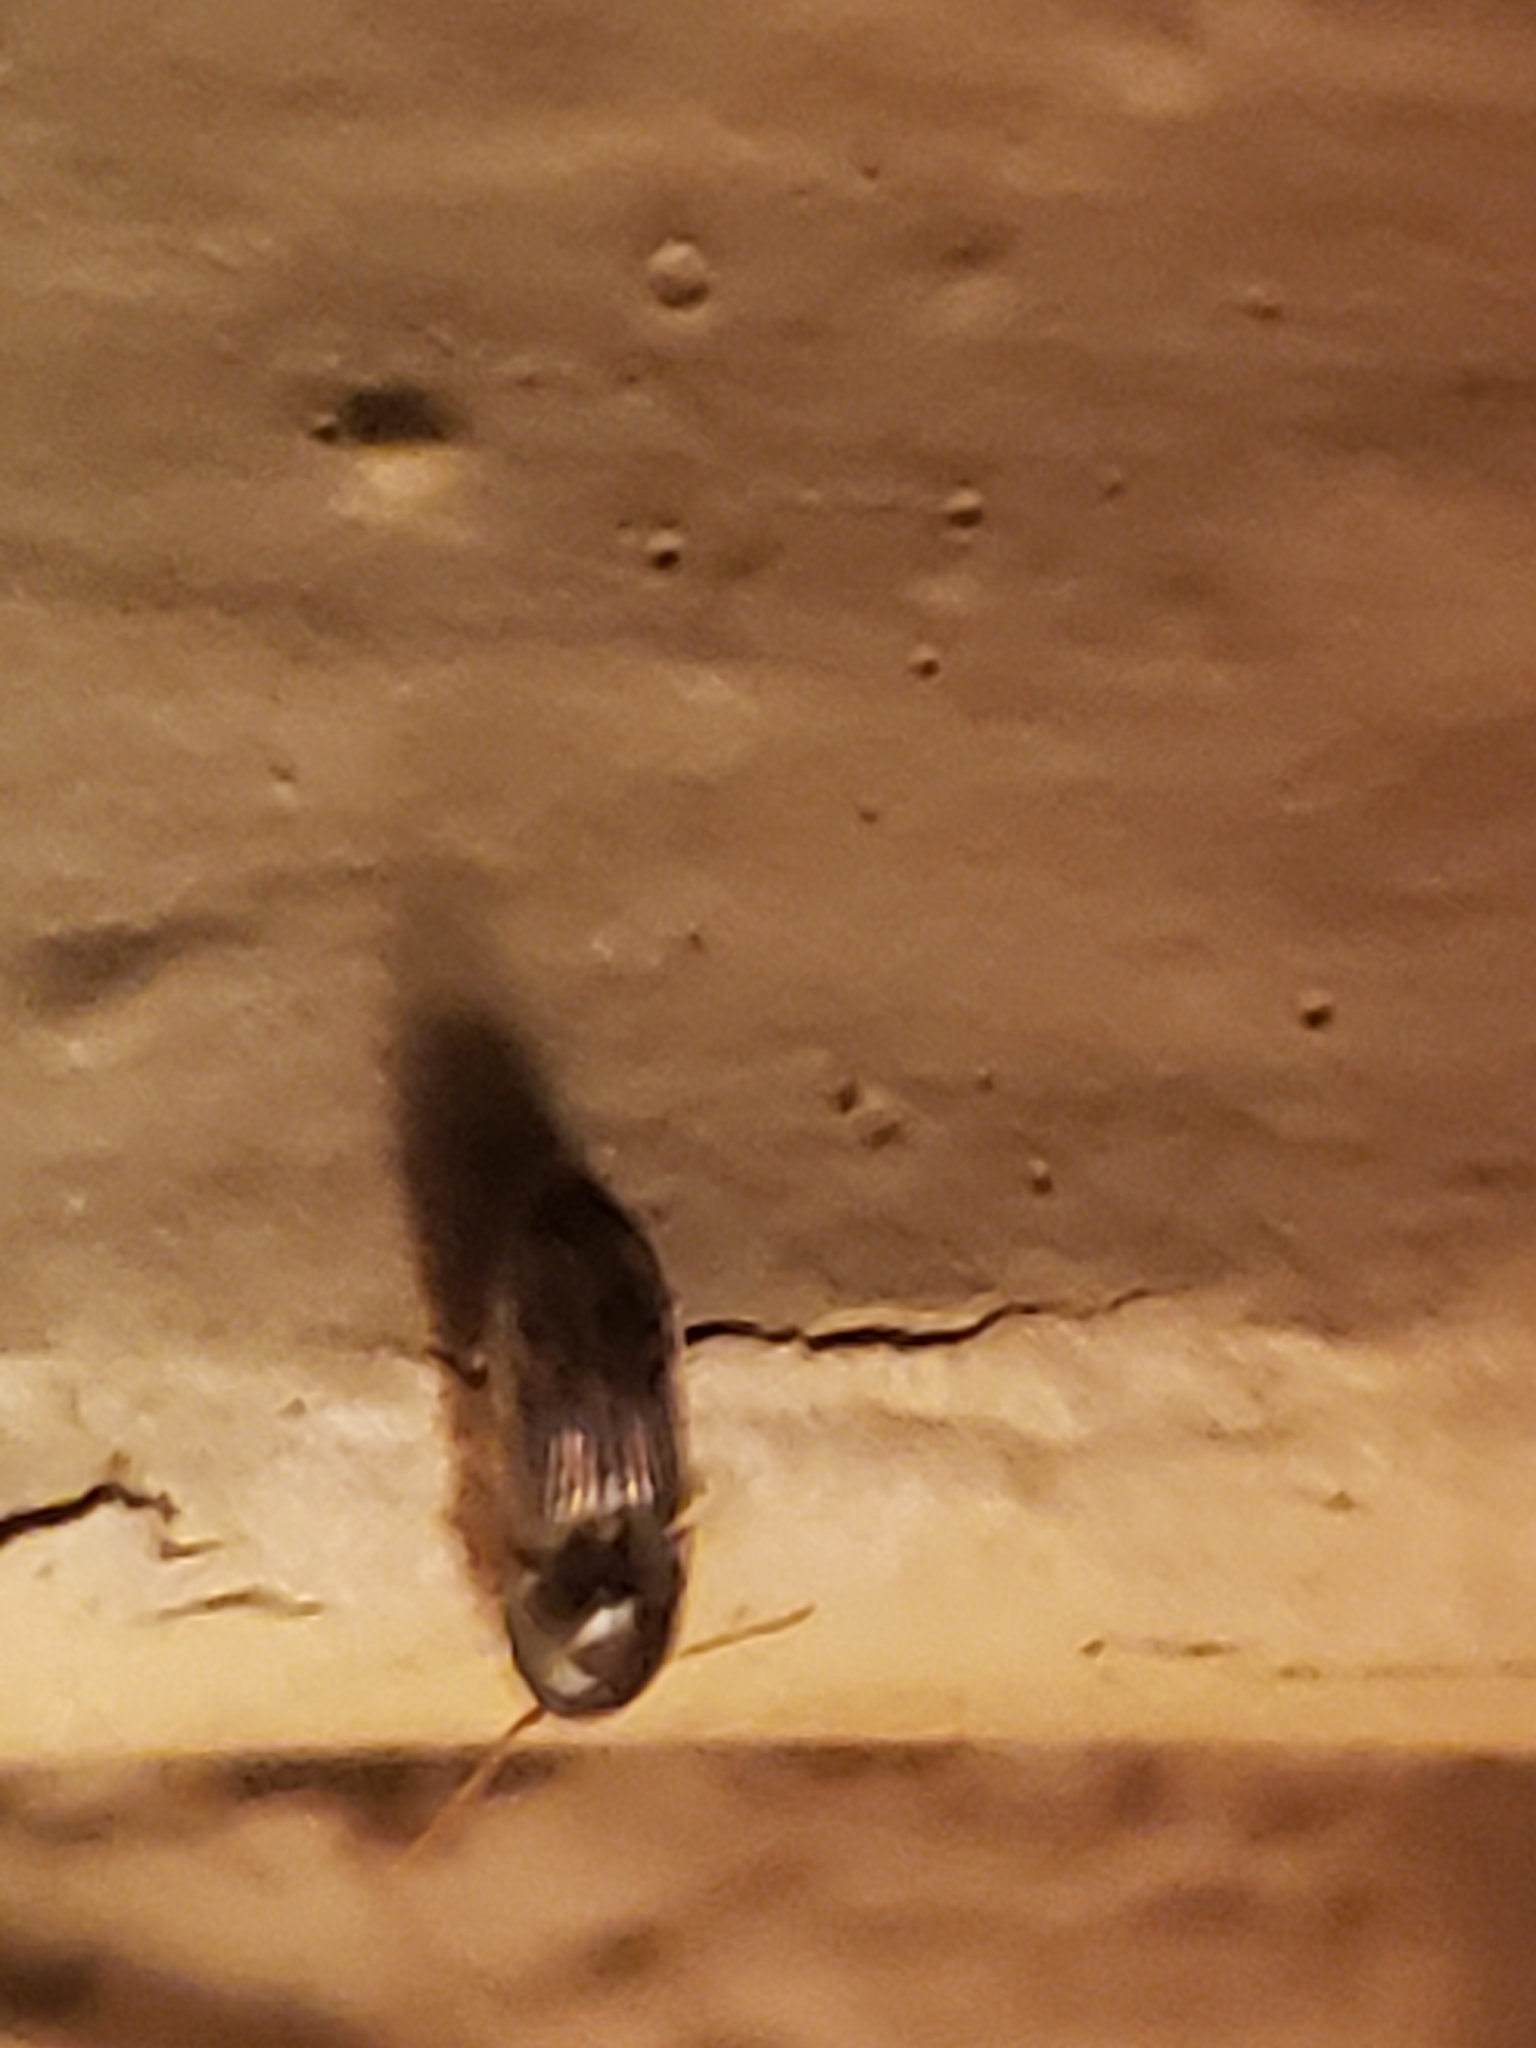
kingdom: Animalia
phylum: Arthropoda
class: Insecta
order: Coleoptera
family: Elateridae
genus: Monocrepidius
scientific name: Monocrepidius bellus
